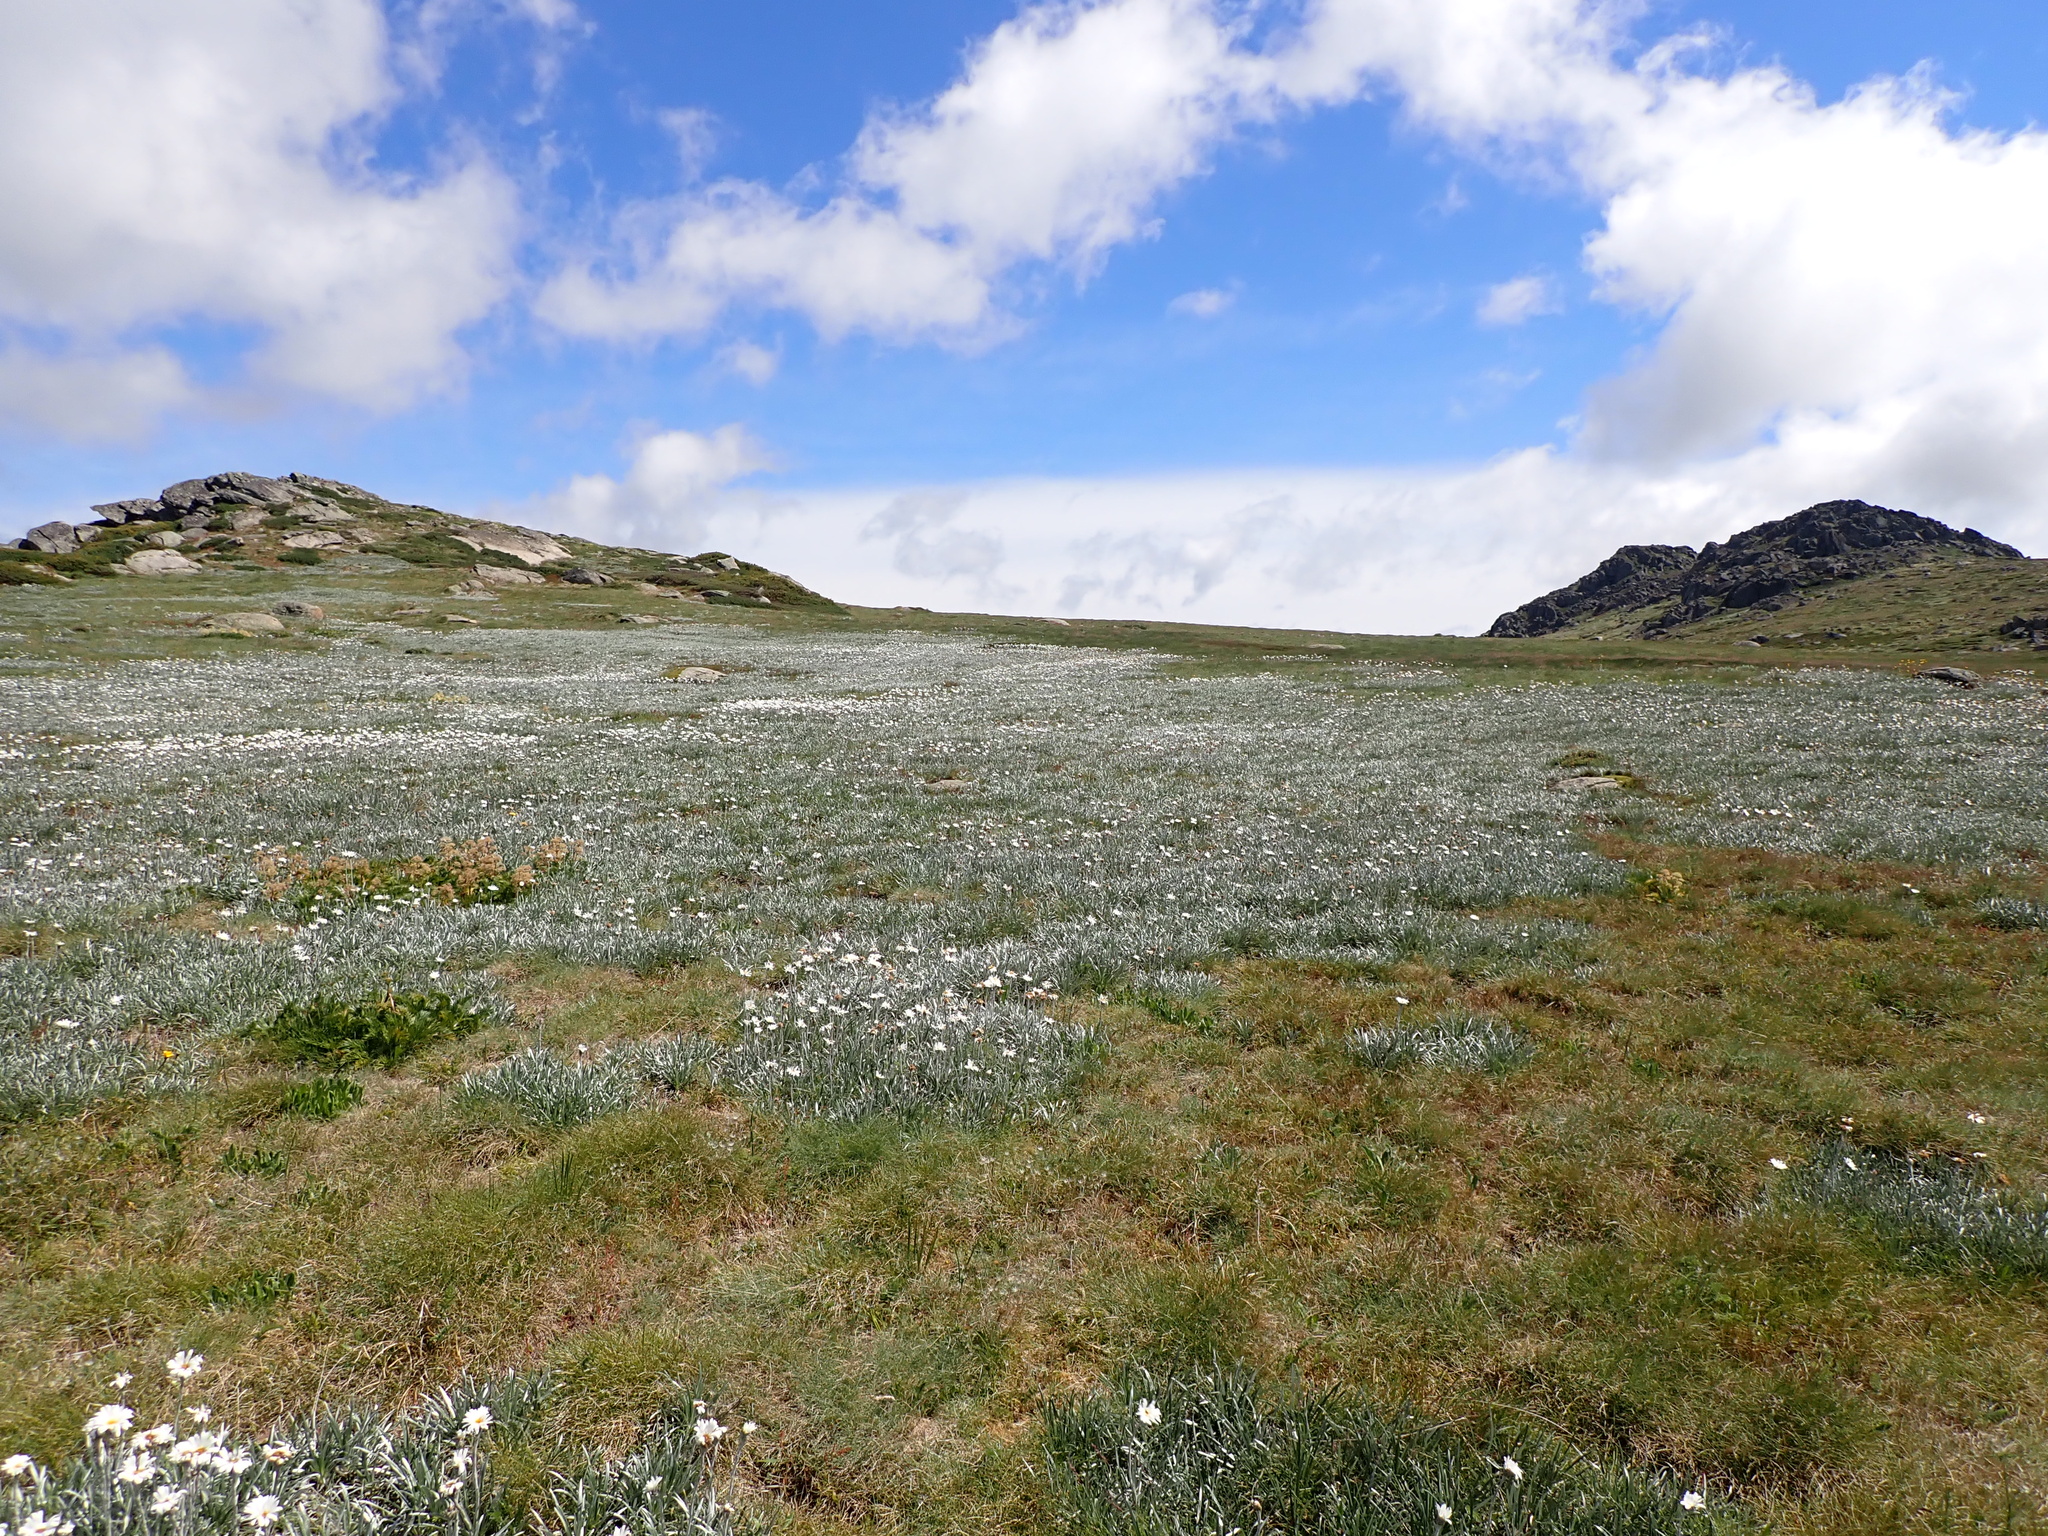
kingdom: Plantae
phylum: Tracheophyta
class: Magnoliopsida
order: Asterales
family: Asteraceae
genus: Celmisia
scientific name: Celmisia costiniana
